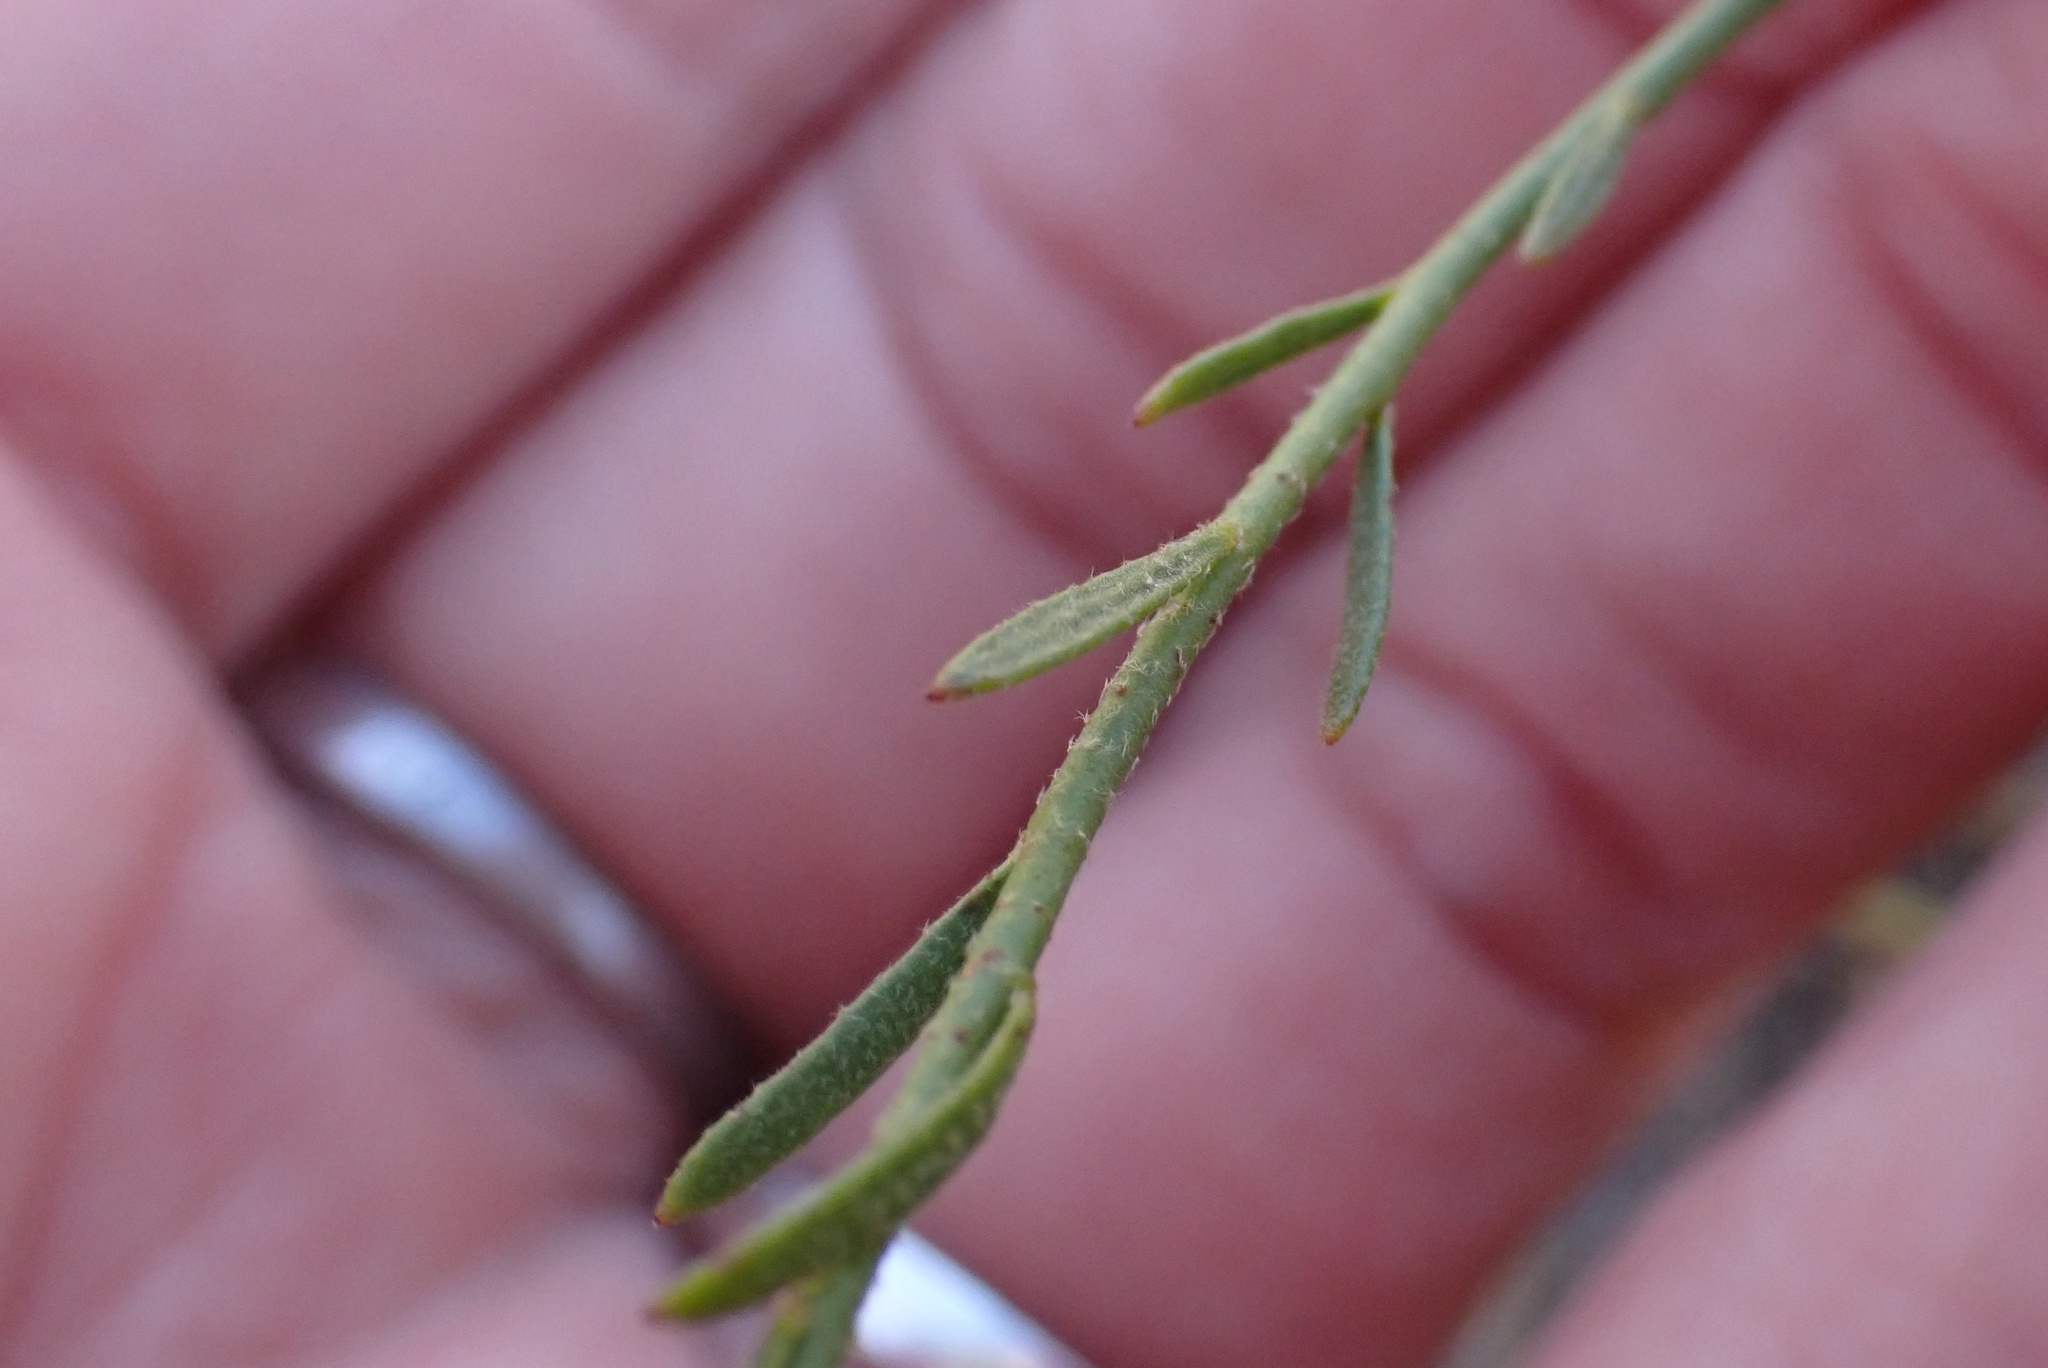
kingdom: Plantae
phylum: Tracheophyta
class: Magnoliopsida
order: Malvales
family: Cistaceae
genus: Crocanthemum
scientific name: Crocanthemum aldersonii
